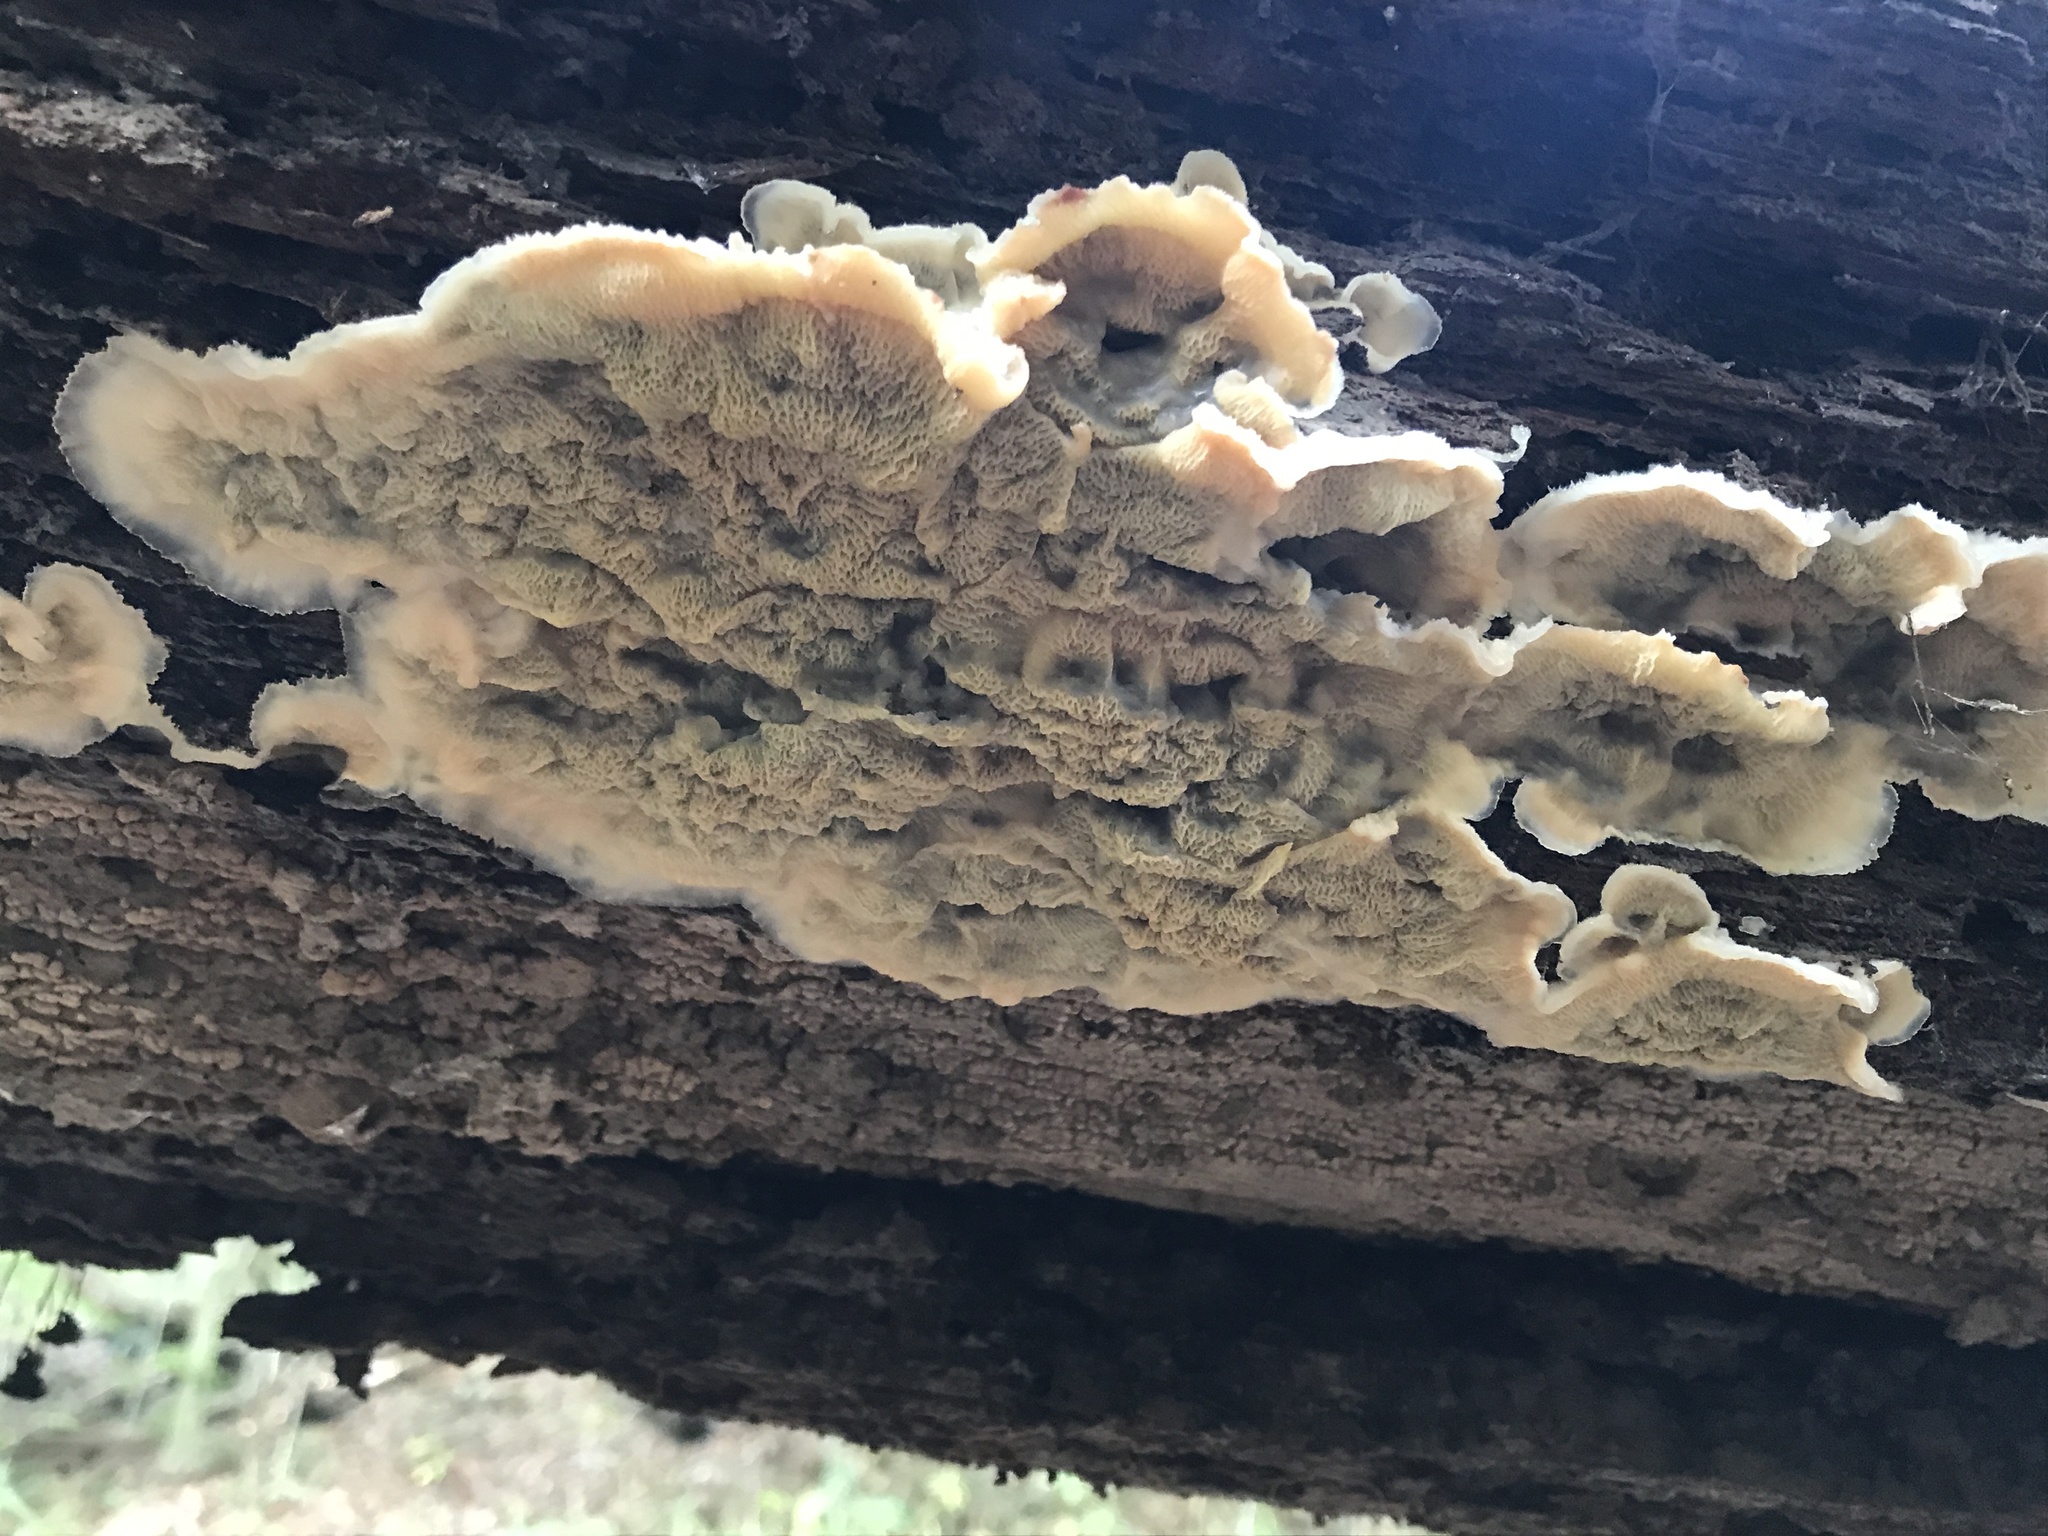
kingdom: Fungi
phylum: Basidiomycota
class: Agaricomycetes
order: Polyporales
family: Meruliaceae
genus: Phlebia
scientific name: Phlebia tremellosa
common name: Jelly rot
